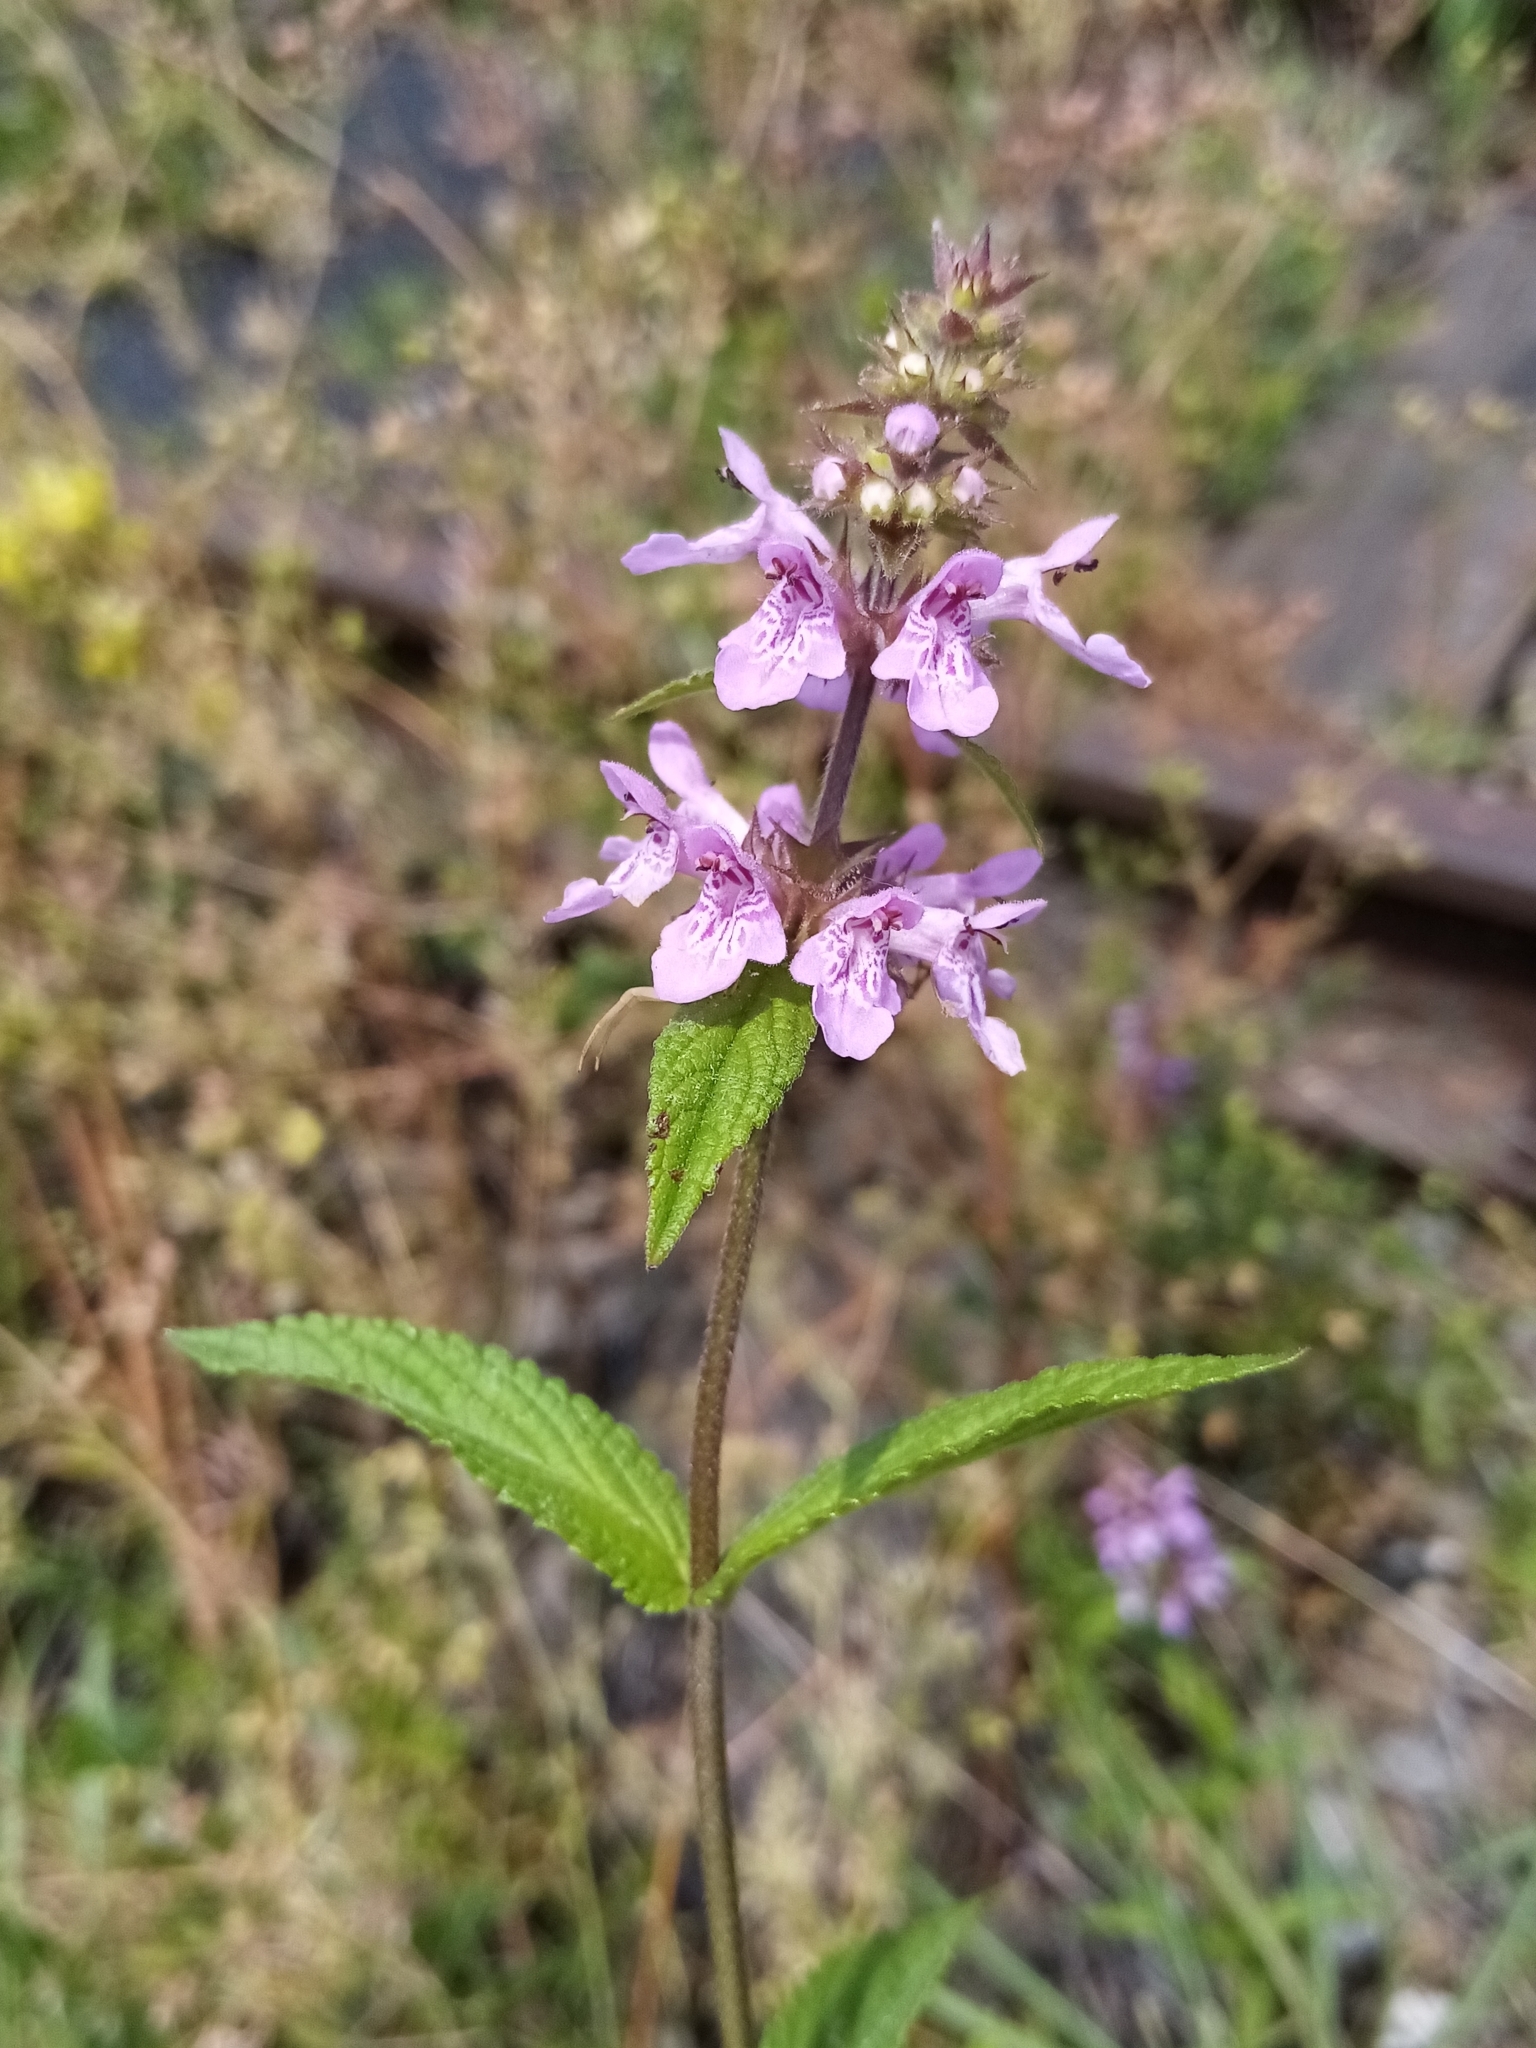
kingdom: Plantae
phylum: Tracheophyta
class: Magnoliopsida
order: Lamiales
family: Lamiaceae
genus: Stachys
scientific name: Stachys palustris
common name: Marsh woundwort
